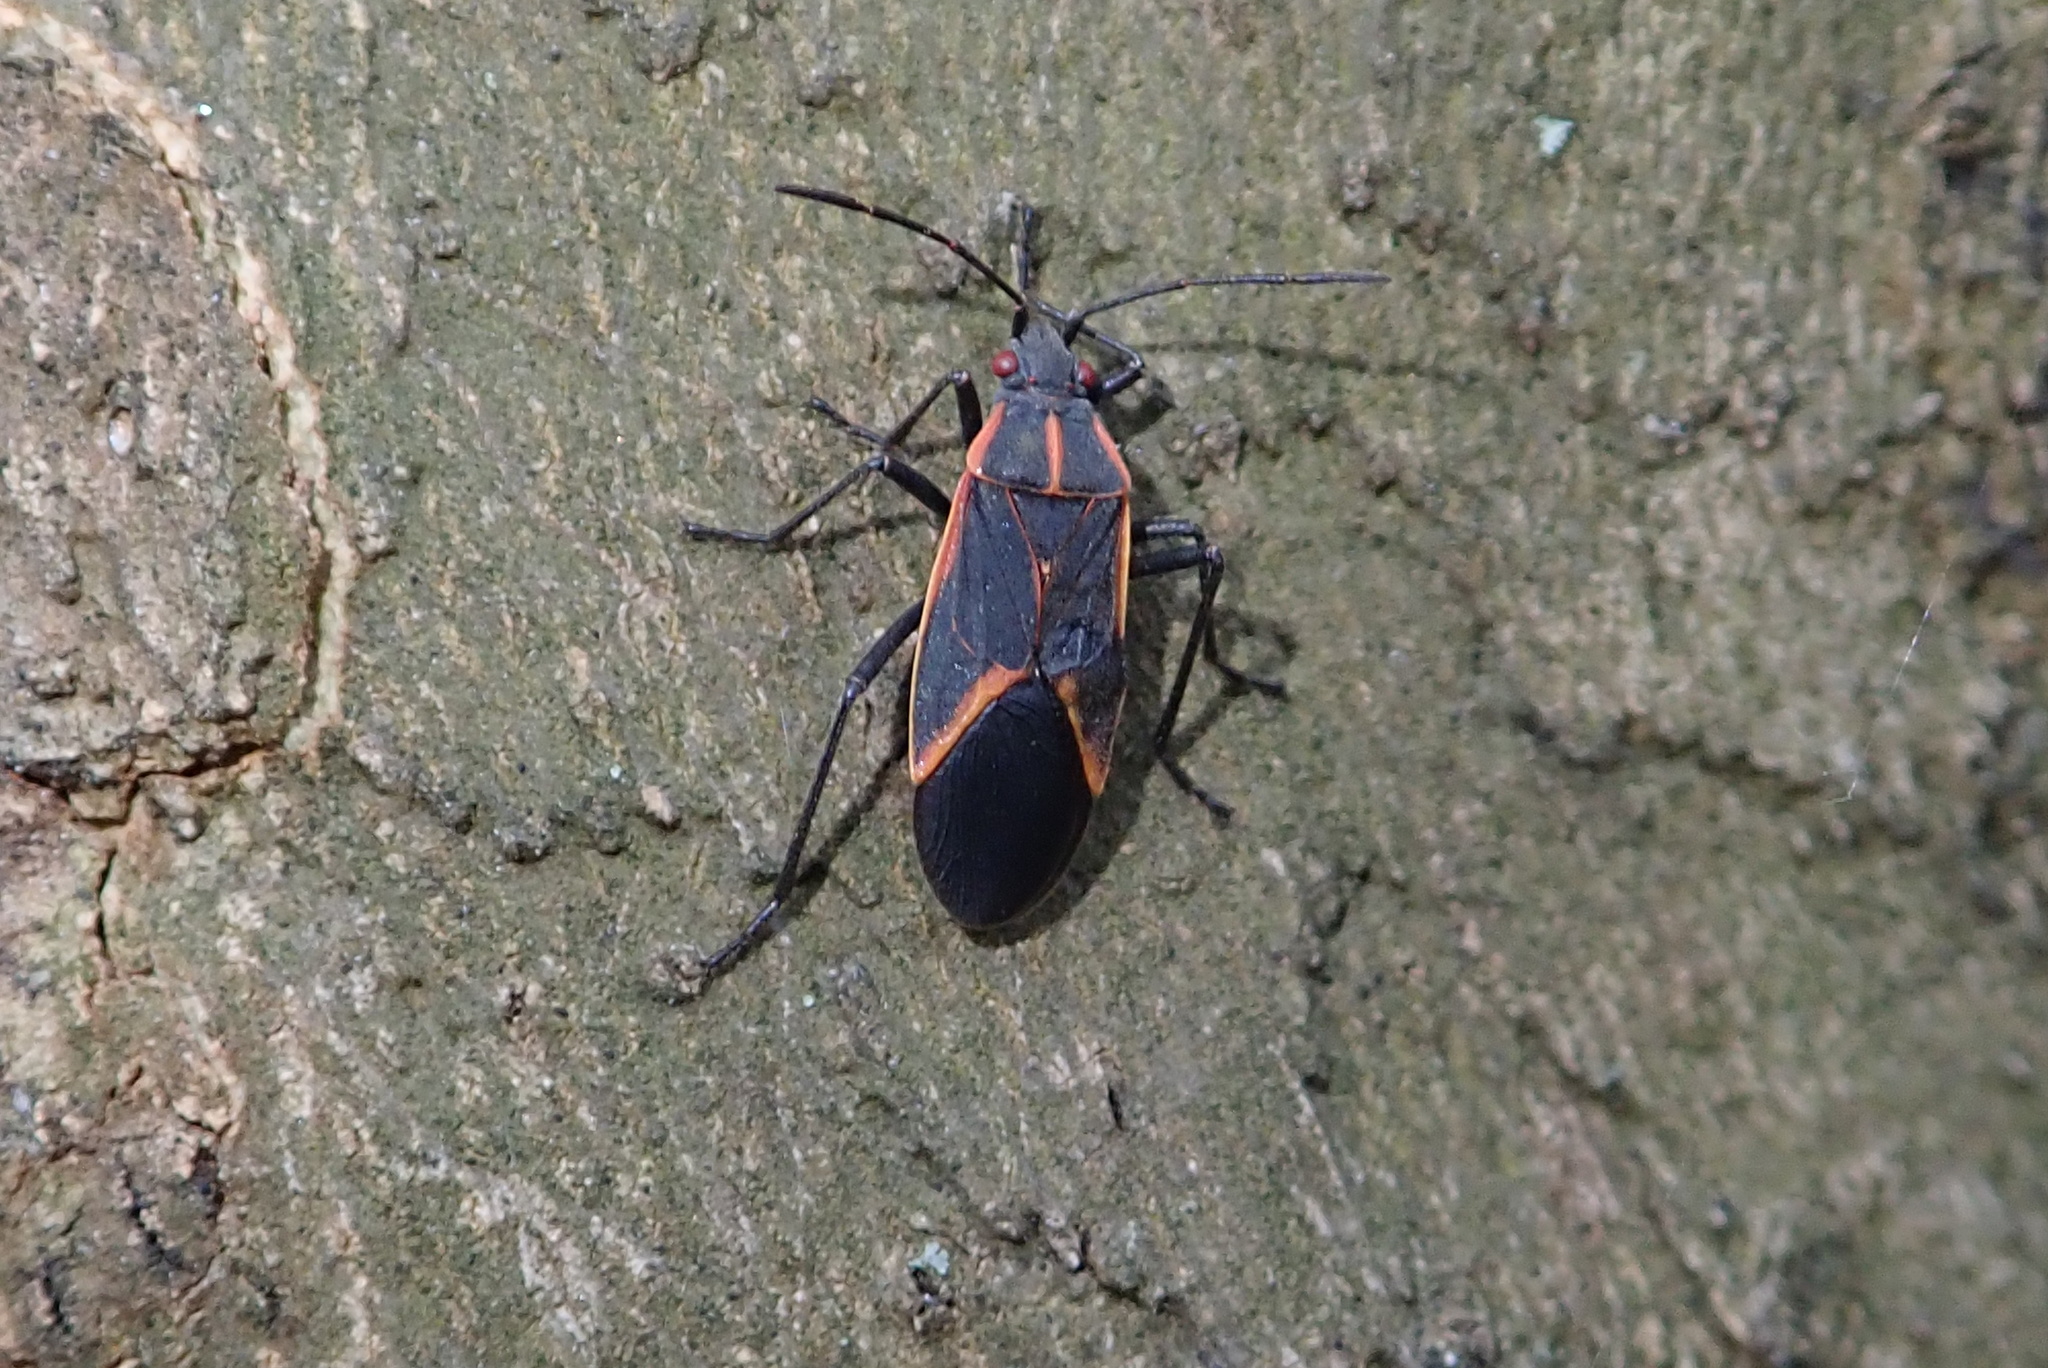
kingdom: Animalia
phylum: Arthropoda
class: Insecta
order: Hemiptera
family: Rhopalidae
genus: Boisea
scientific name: Boisea trivittata
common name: Boxelder bug
